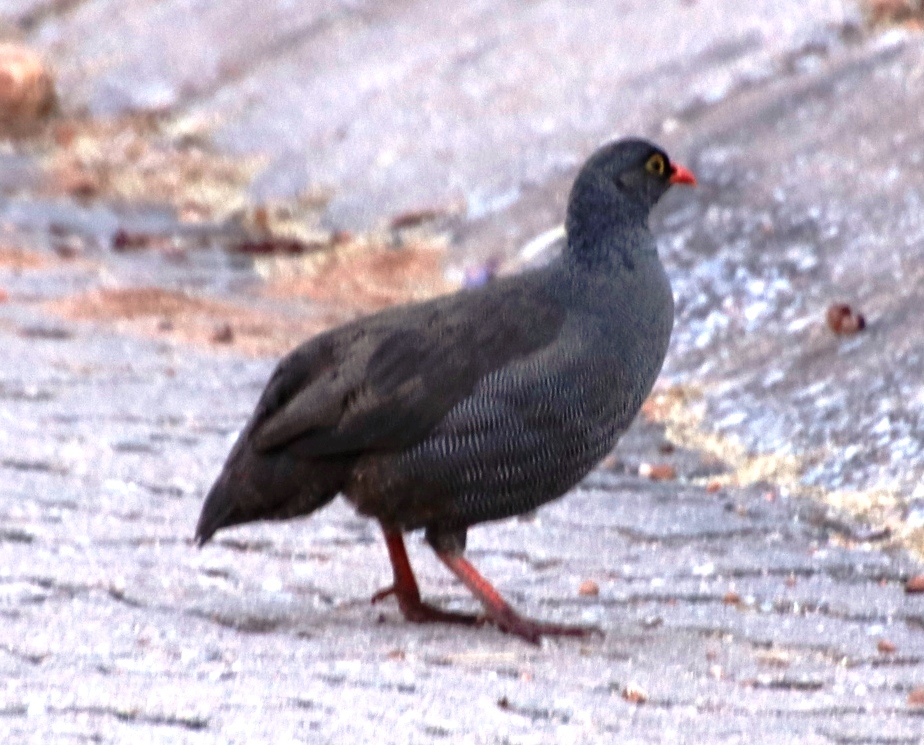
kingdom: Animalia
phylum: Chordata
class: Aves
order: Galliformes
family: Phasianidae
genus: Pternistis
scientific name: Pternistis adspersus
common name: Red-billed spurfowl
